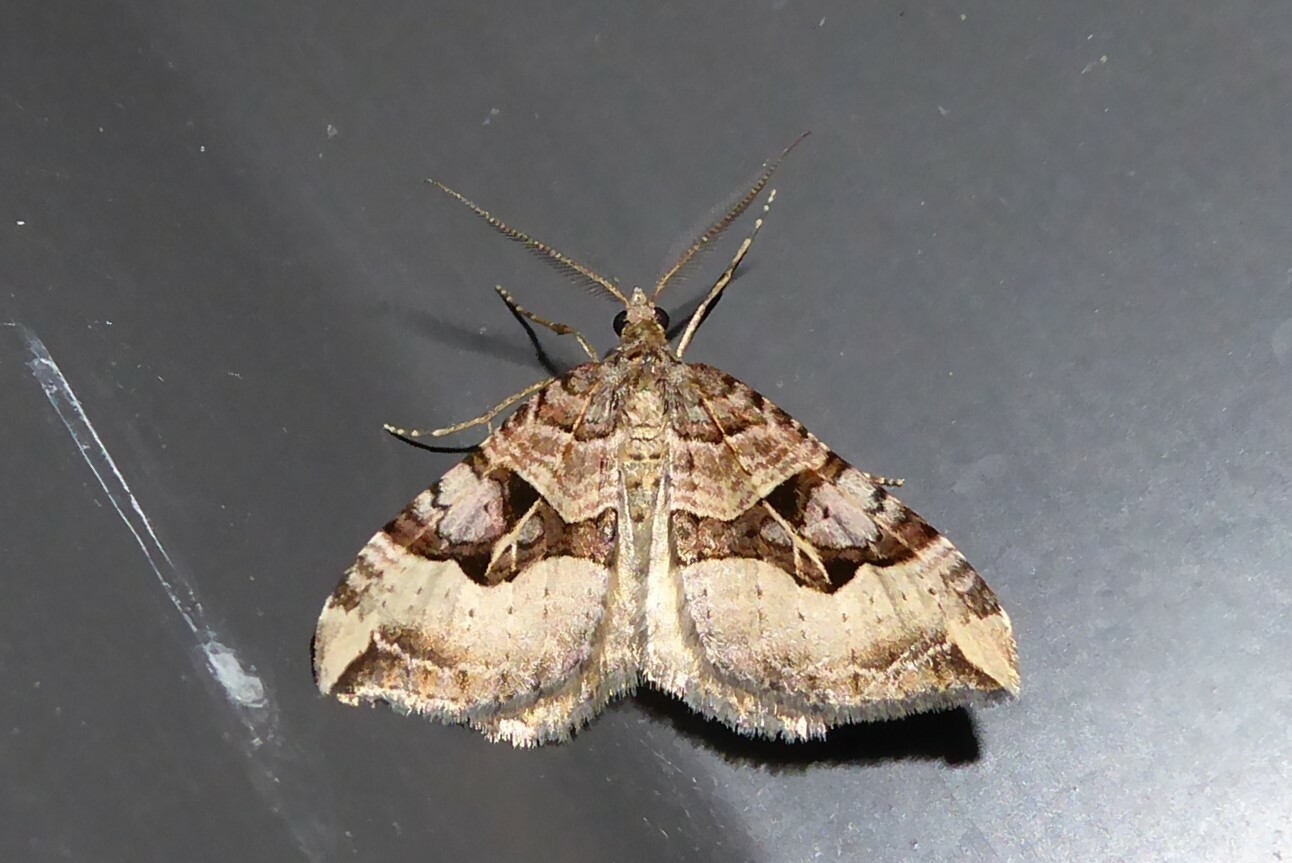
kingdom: Animalia
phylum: Arthropoda
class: Insecta
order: Lepidoptera
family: Geometridae
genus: Xanthorhoe
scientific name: Xanthorhoe semifissata
